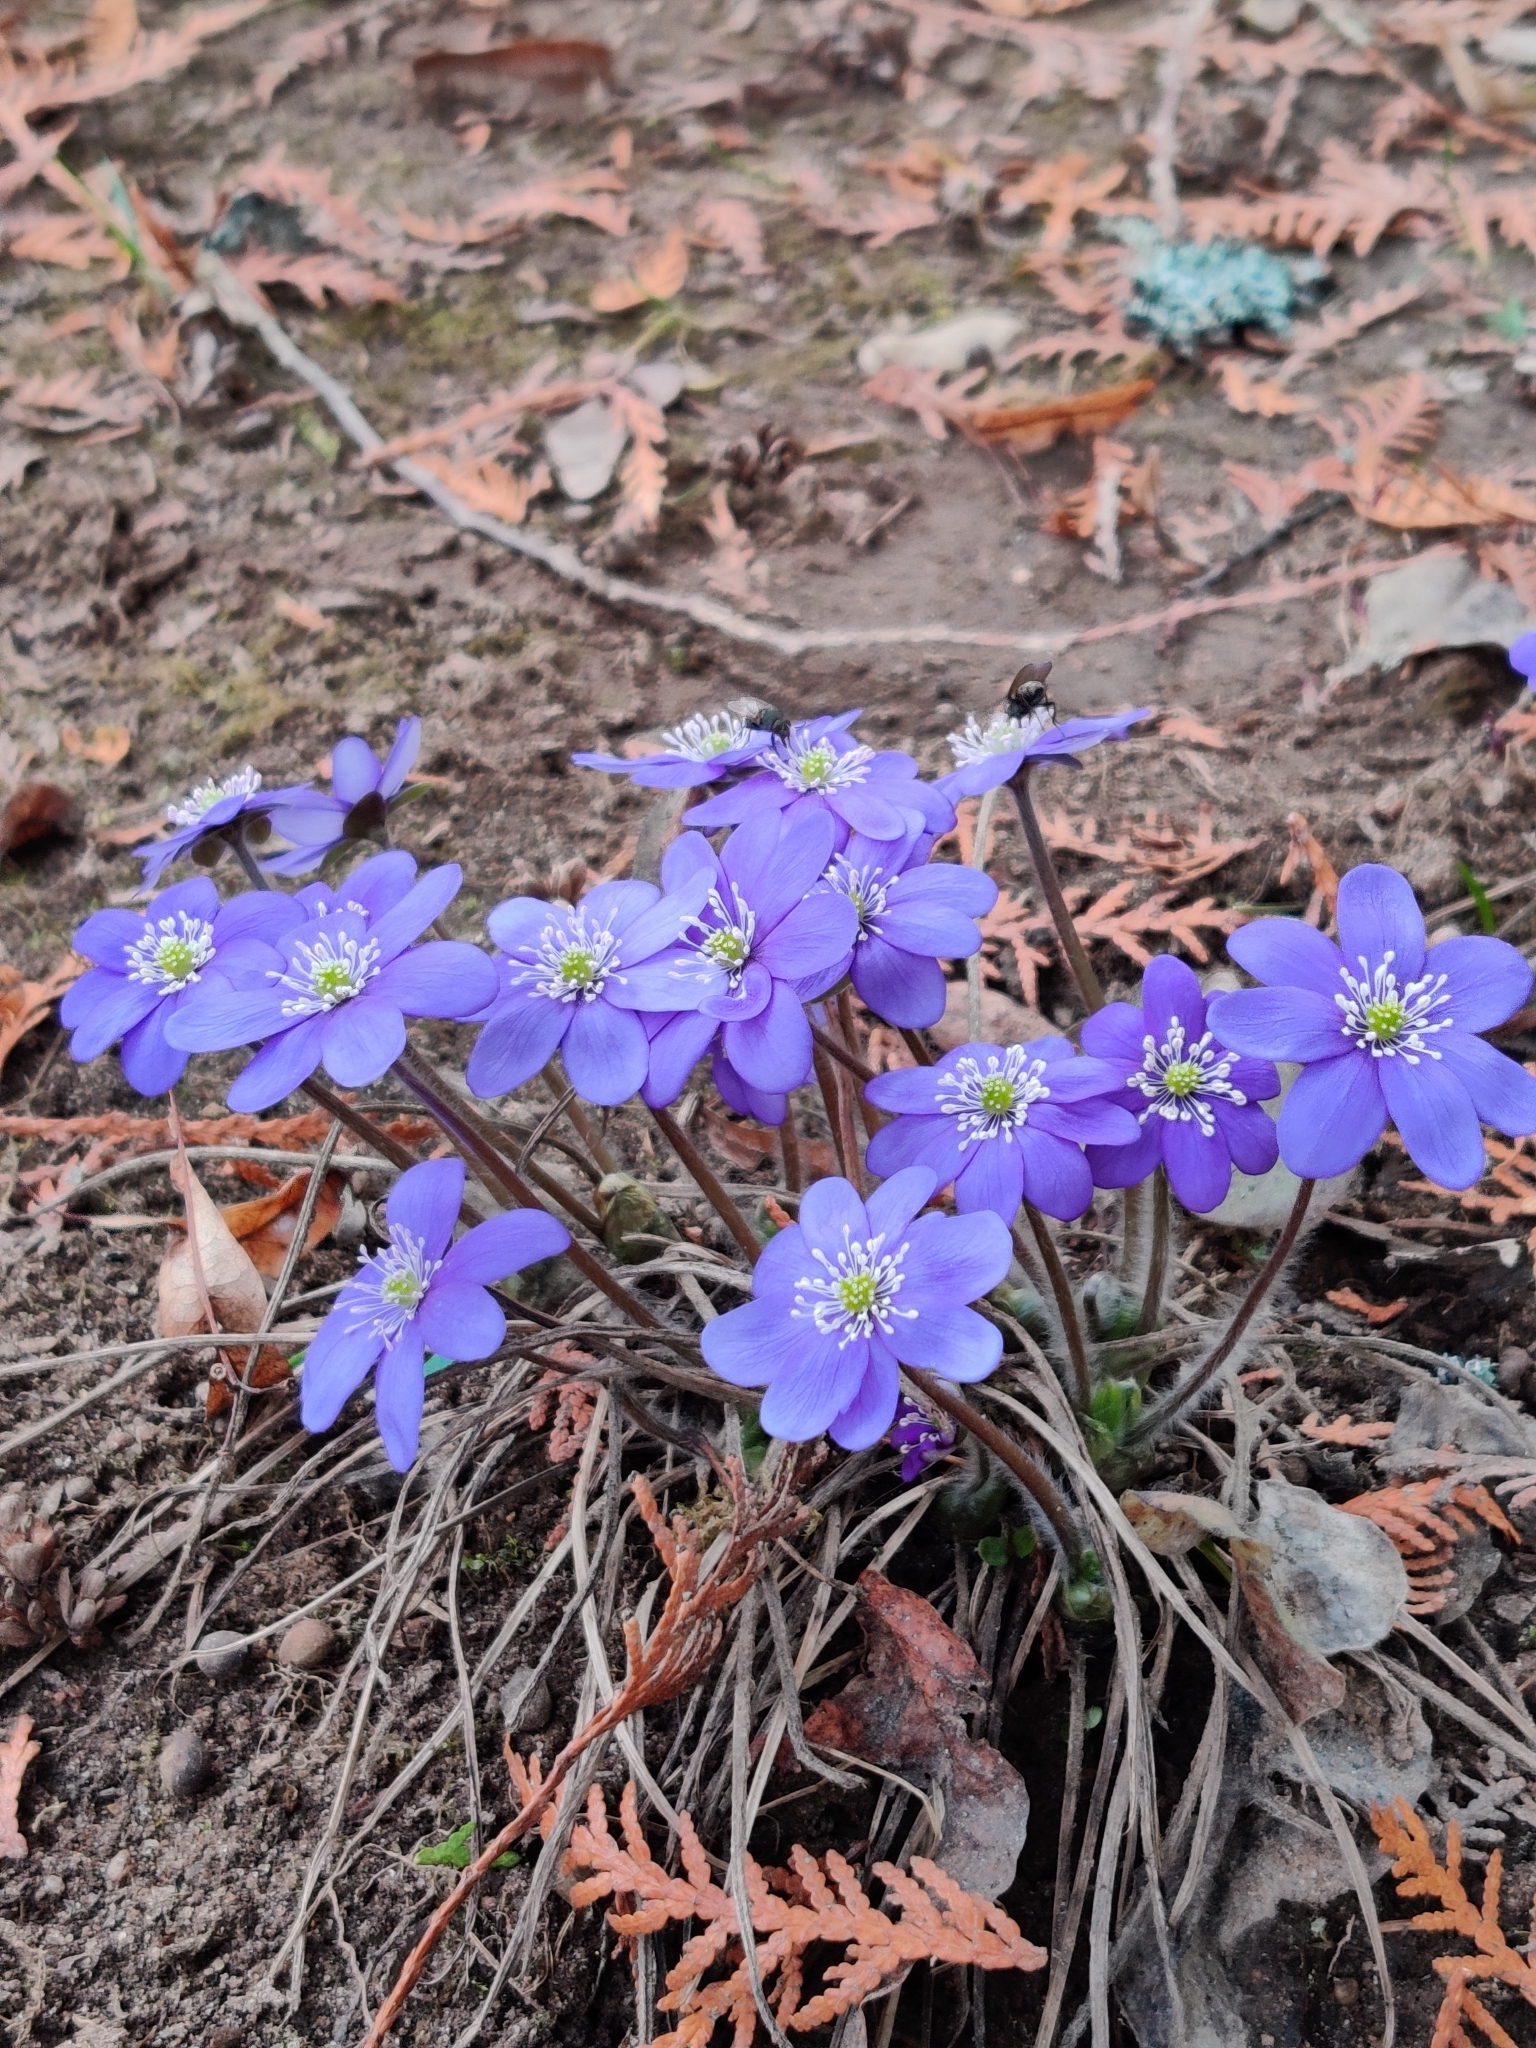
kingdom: Plantae
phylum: Tracheophyta
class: Magnoliopsida
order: Ranunculales
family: Ranunculaceae
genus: Hepatica
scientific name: Hepatica nobilis
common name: Liverleaf
